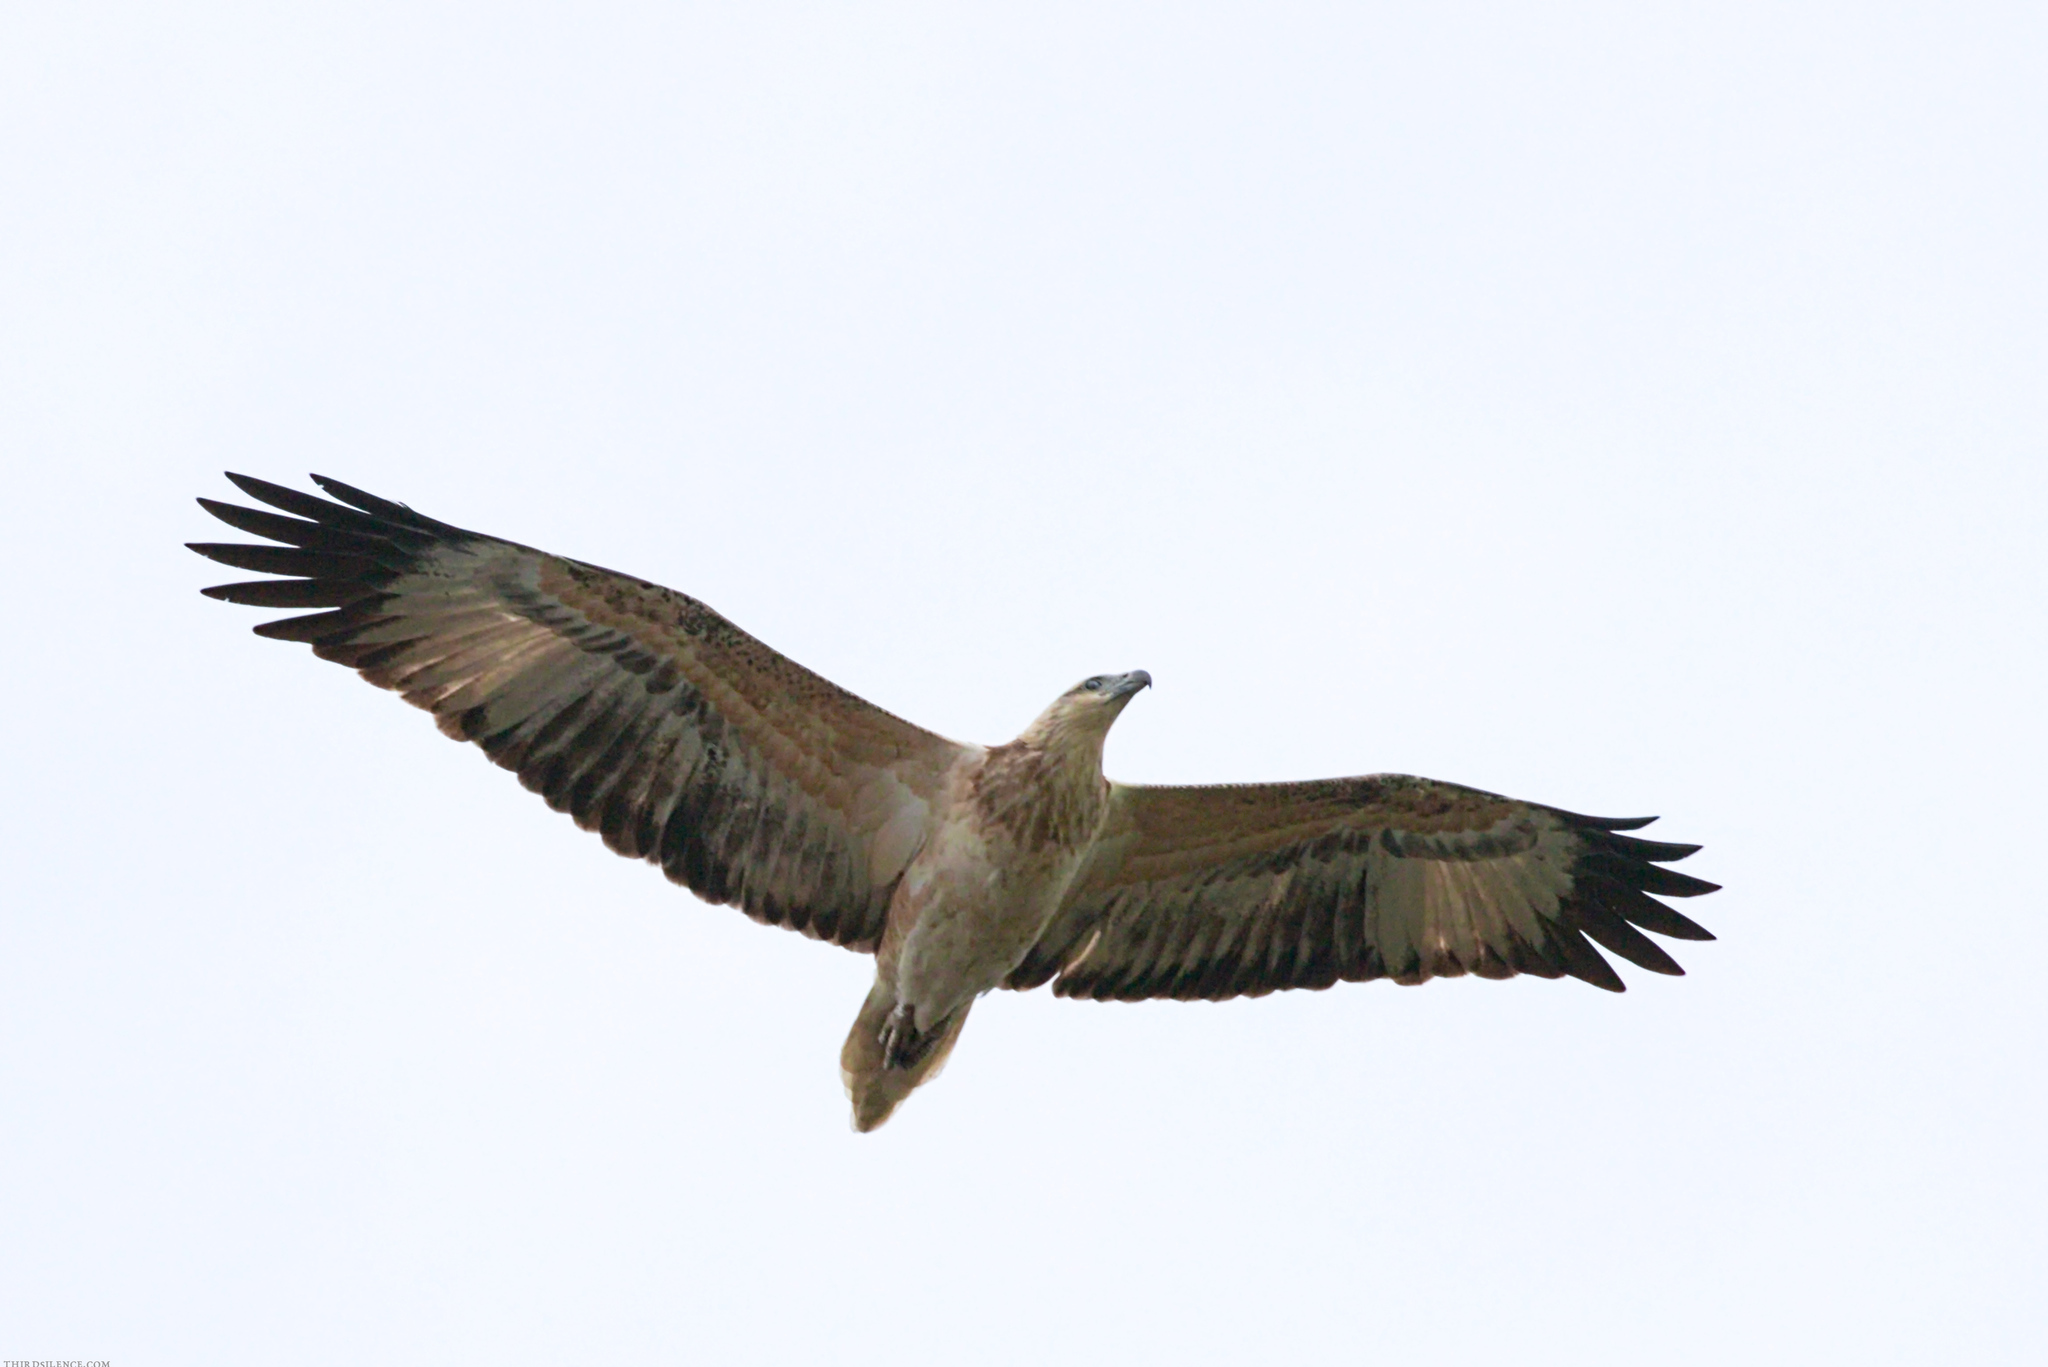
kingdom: Animalia
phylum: Chordata
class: Aves
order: Accipitriformes
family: Accipitridae
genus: Haliaeetus
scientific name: Haliaeetus leucogaster
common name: White-bellied sea eagle
